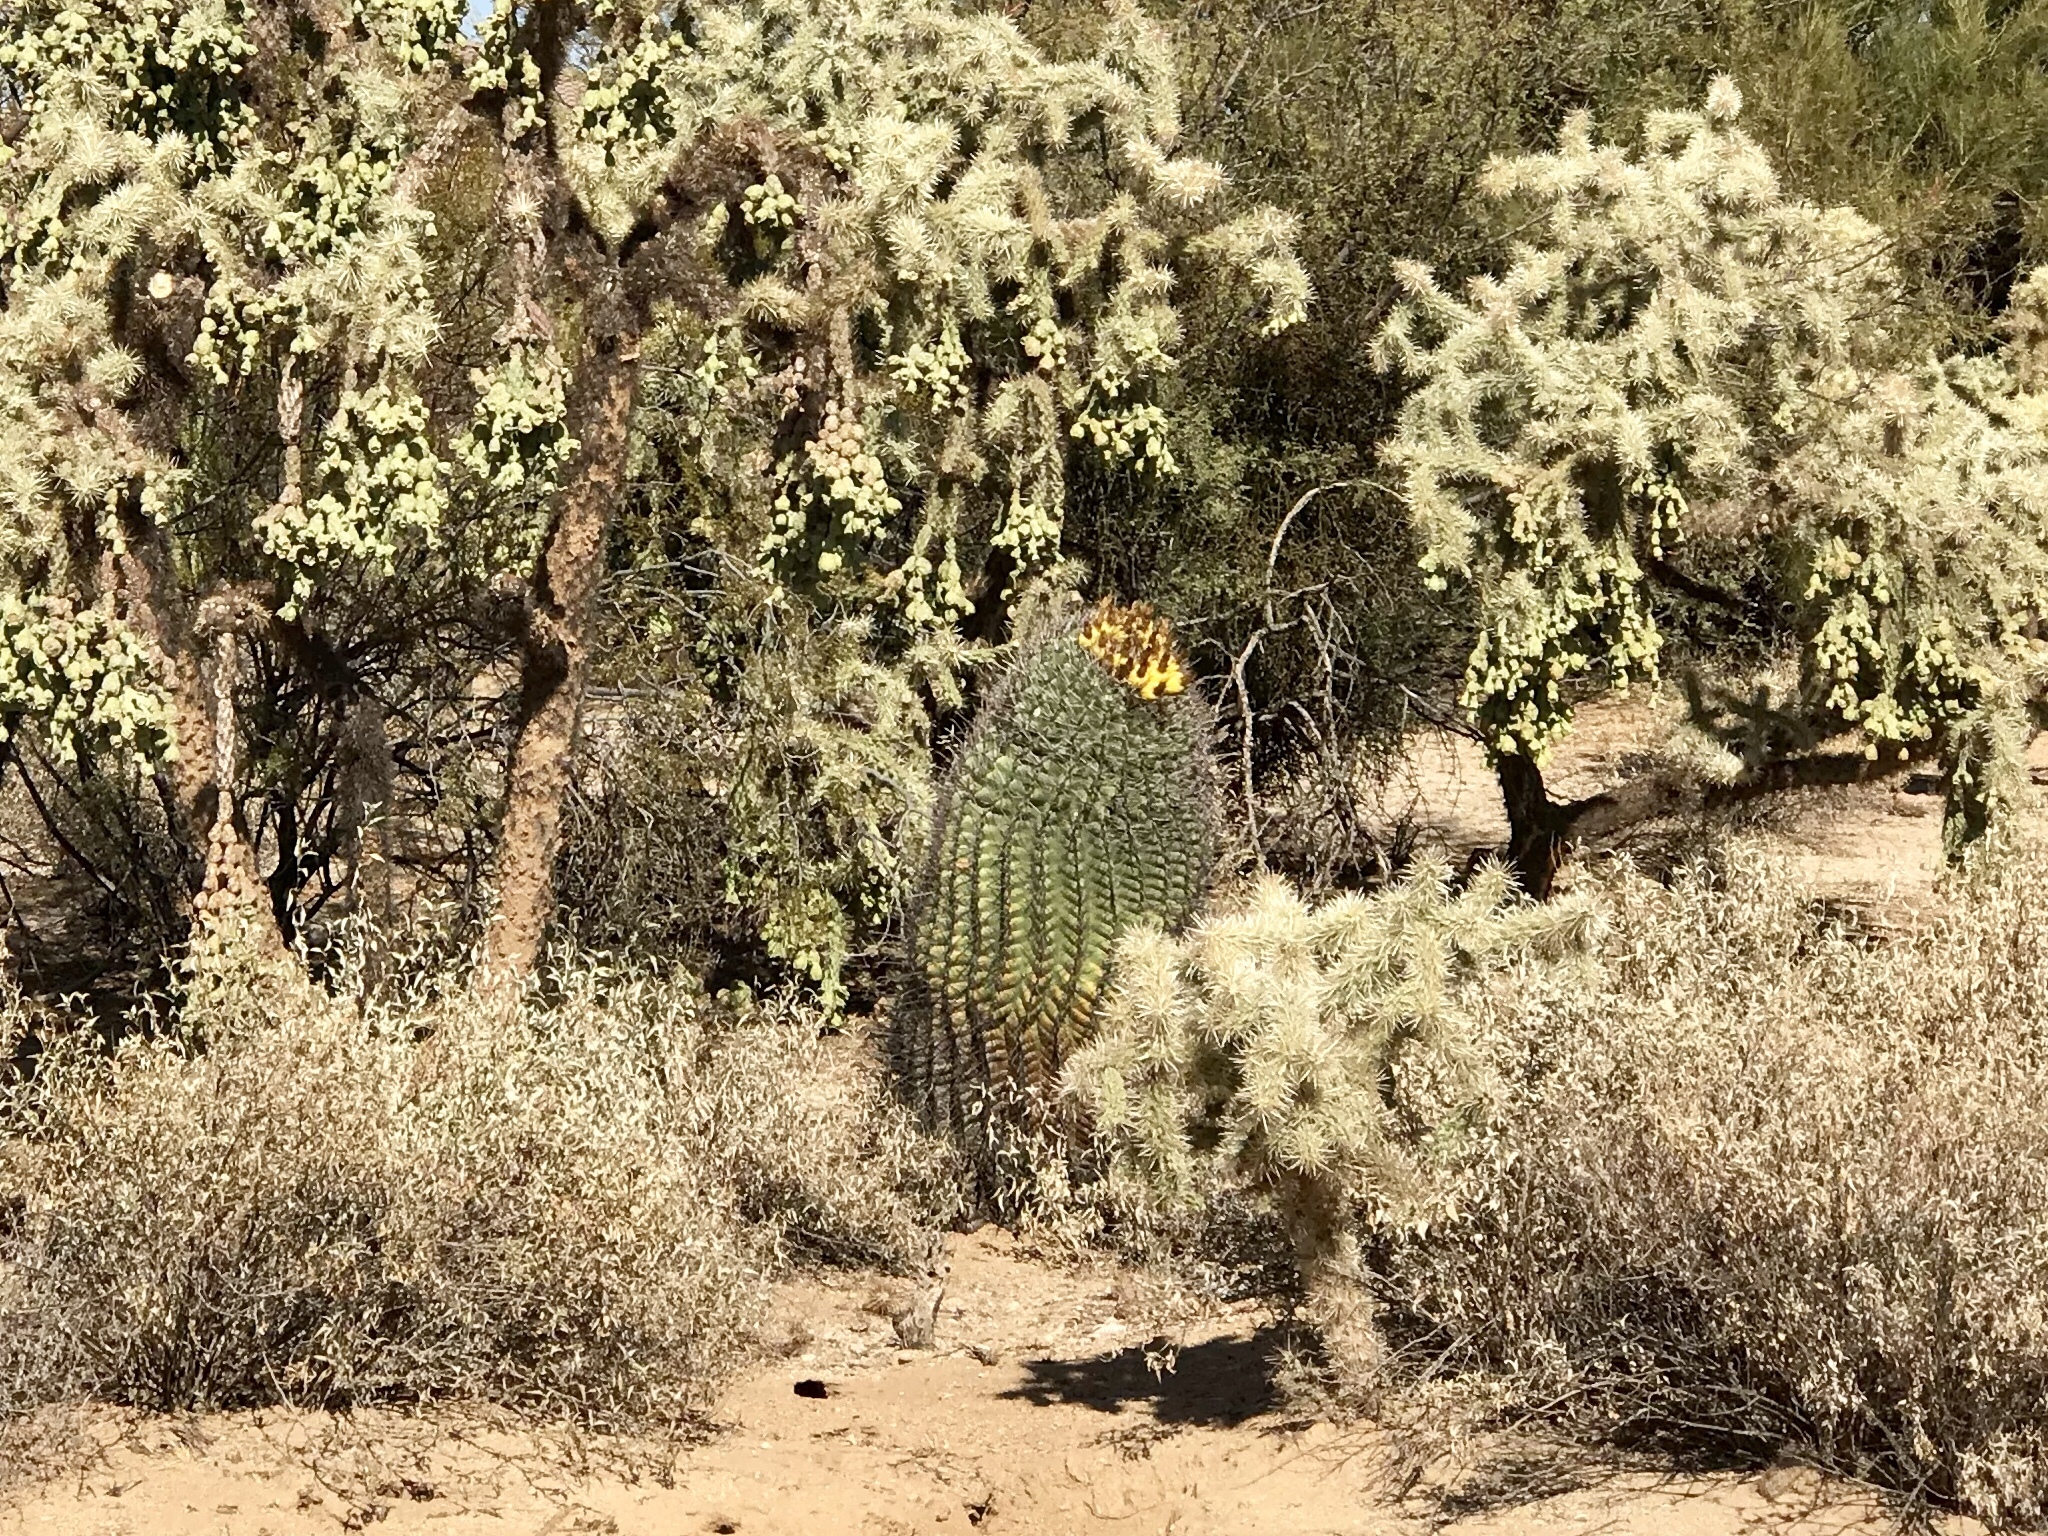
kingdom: Plantae
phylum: Tracheophyta
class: Magnoliopsida
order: Caryophyllales
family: Cactaceae
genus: Ferocactus
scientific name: Ferocactus wislizeni
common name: Candy barrel cactus
